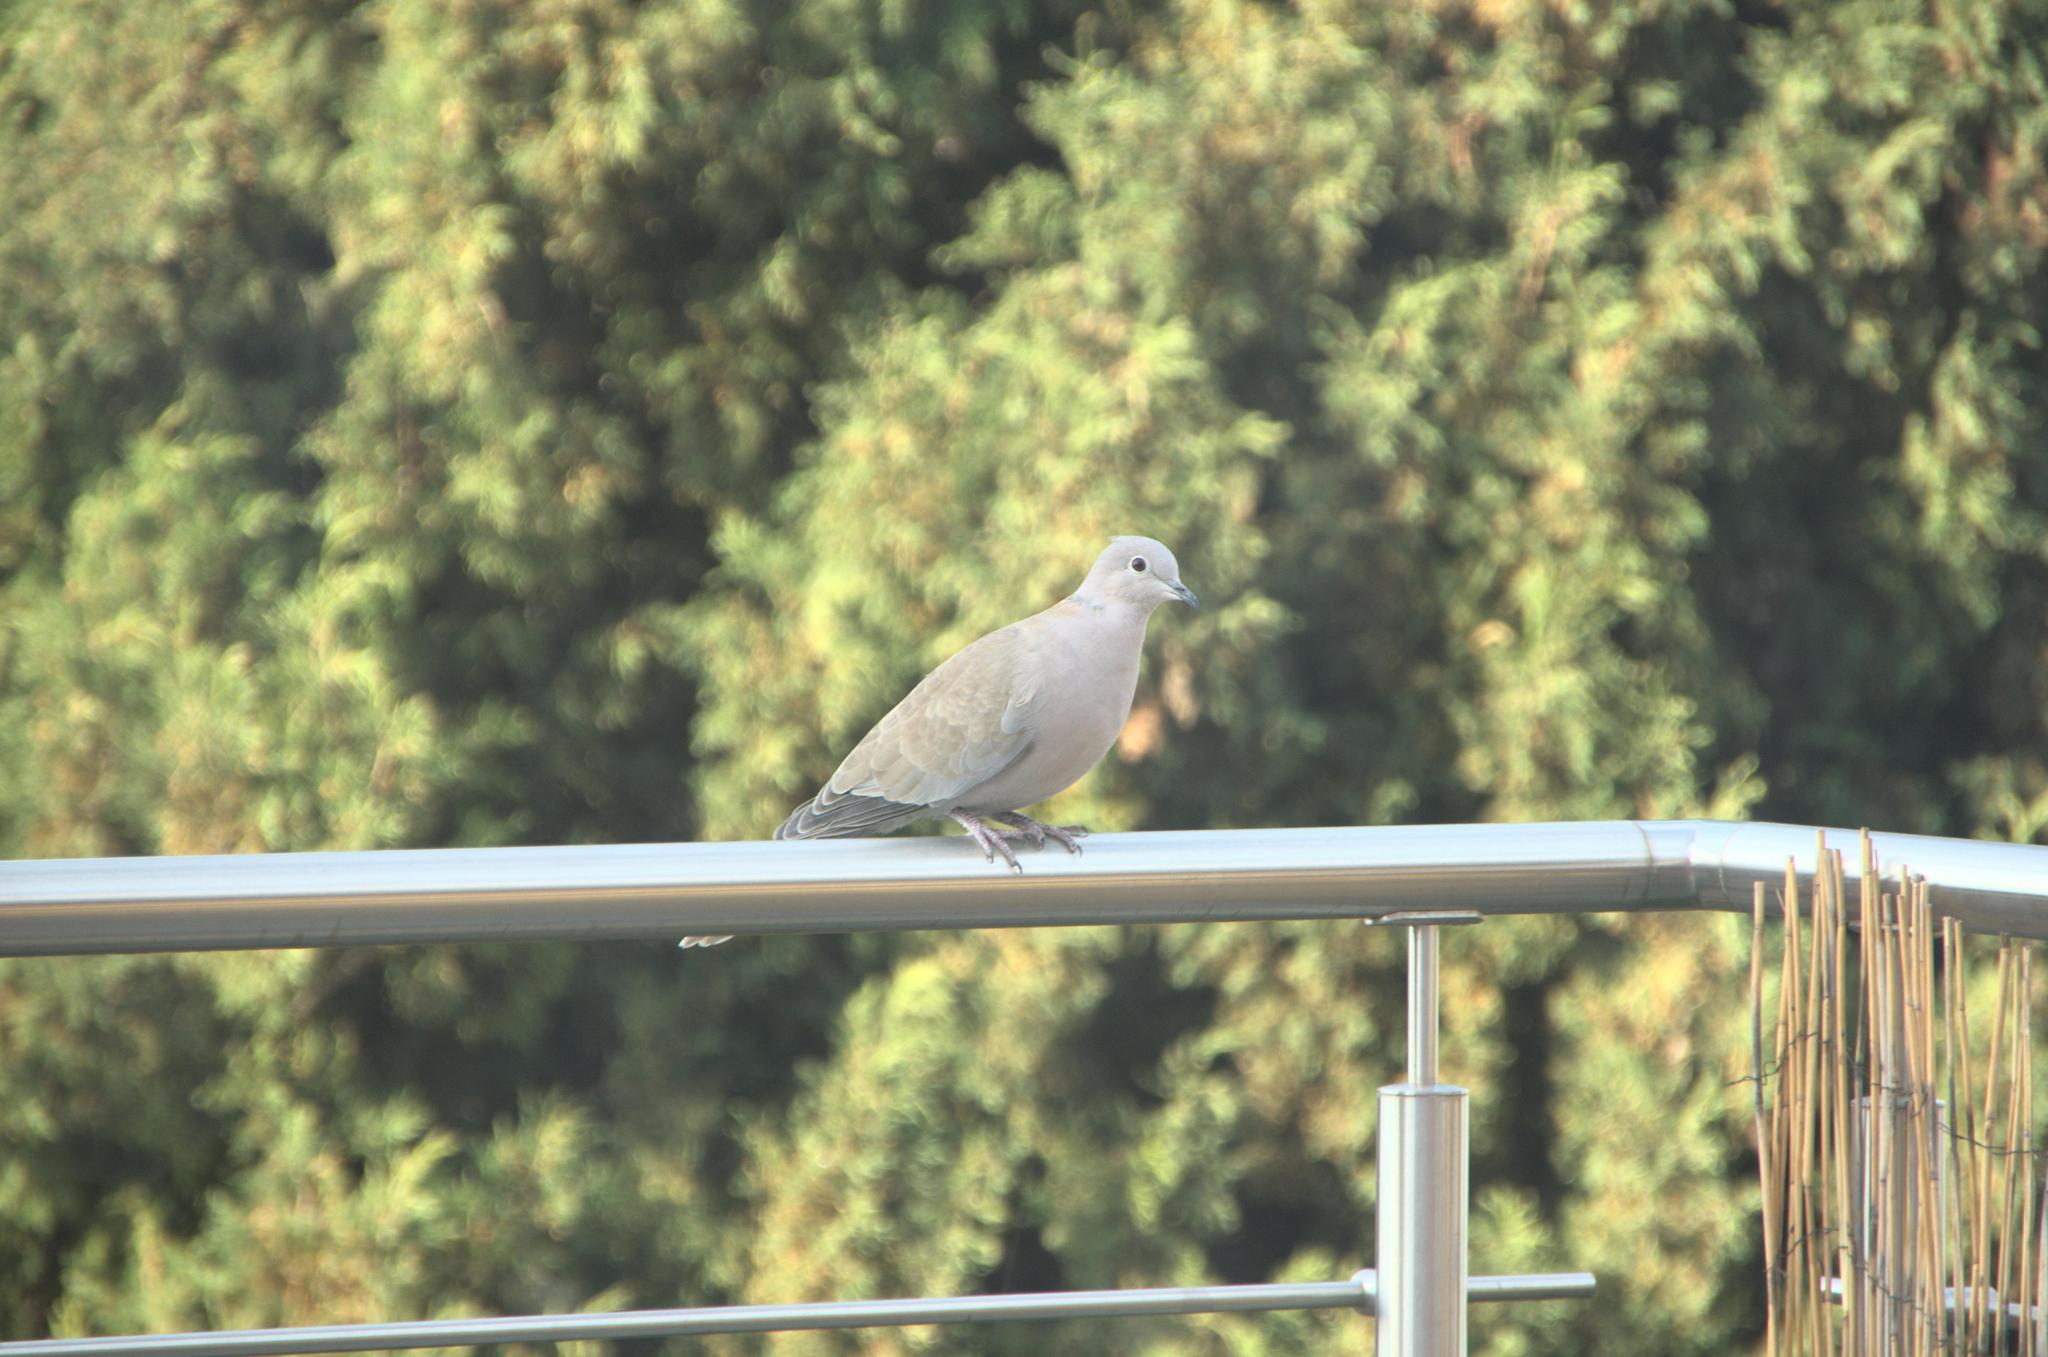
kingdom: Animalia
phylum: Chordata
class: Aves
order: Columbiformes
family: Columbidae
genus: Streptopelia
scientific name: Streptopelia decaocto
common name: Eurasian collared dove
